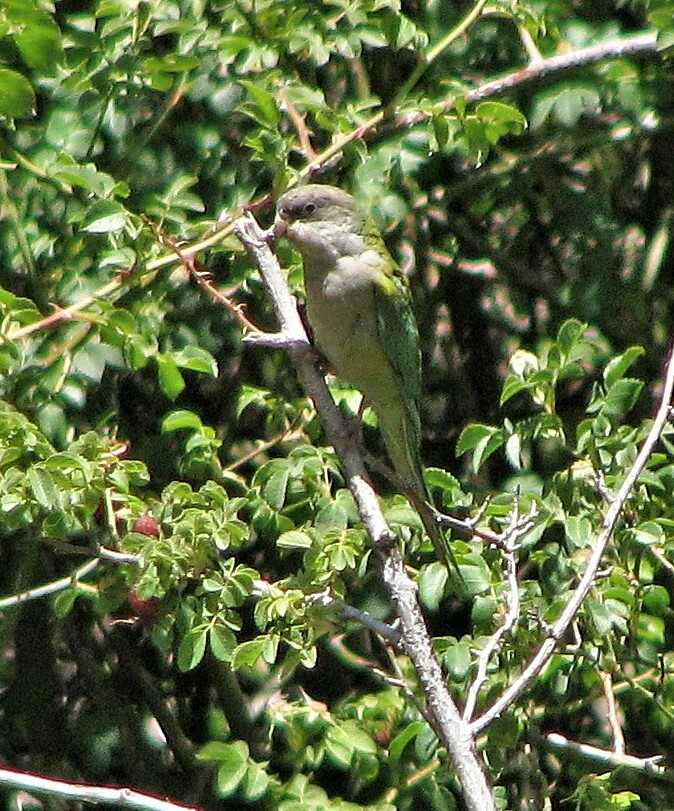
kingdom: Animalia
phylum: Chordata
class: Aves
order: Psittaciformes
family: Psittacidae
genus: Psilopsiagon
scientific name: Psilopsiagon aymara
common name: Grey-hooded parakeet
